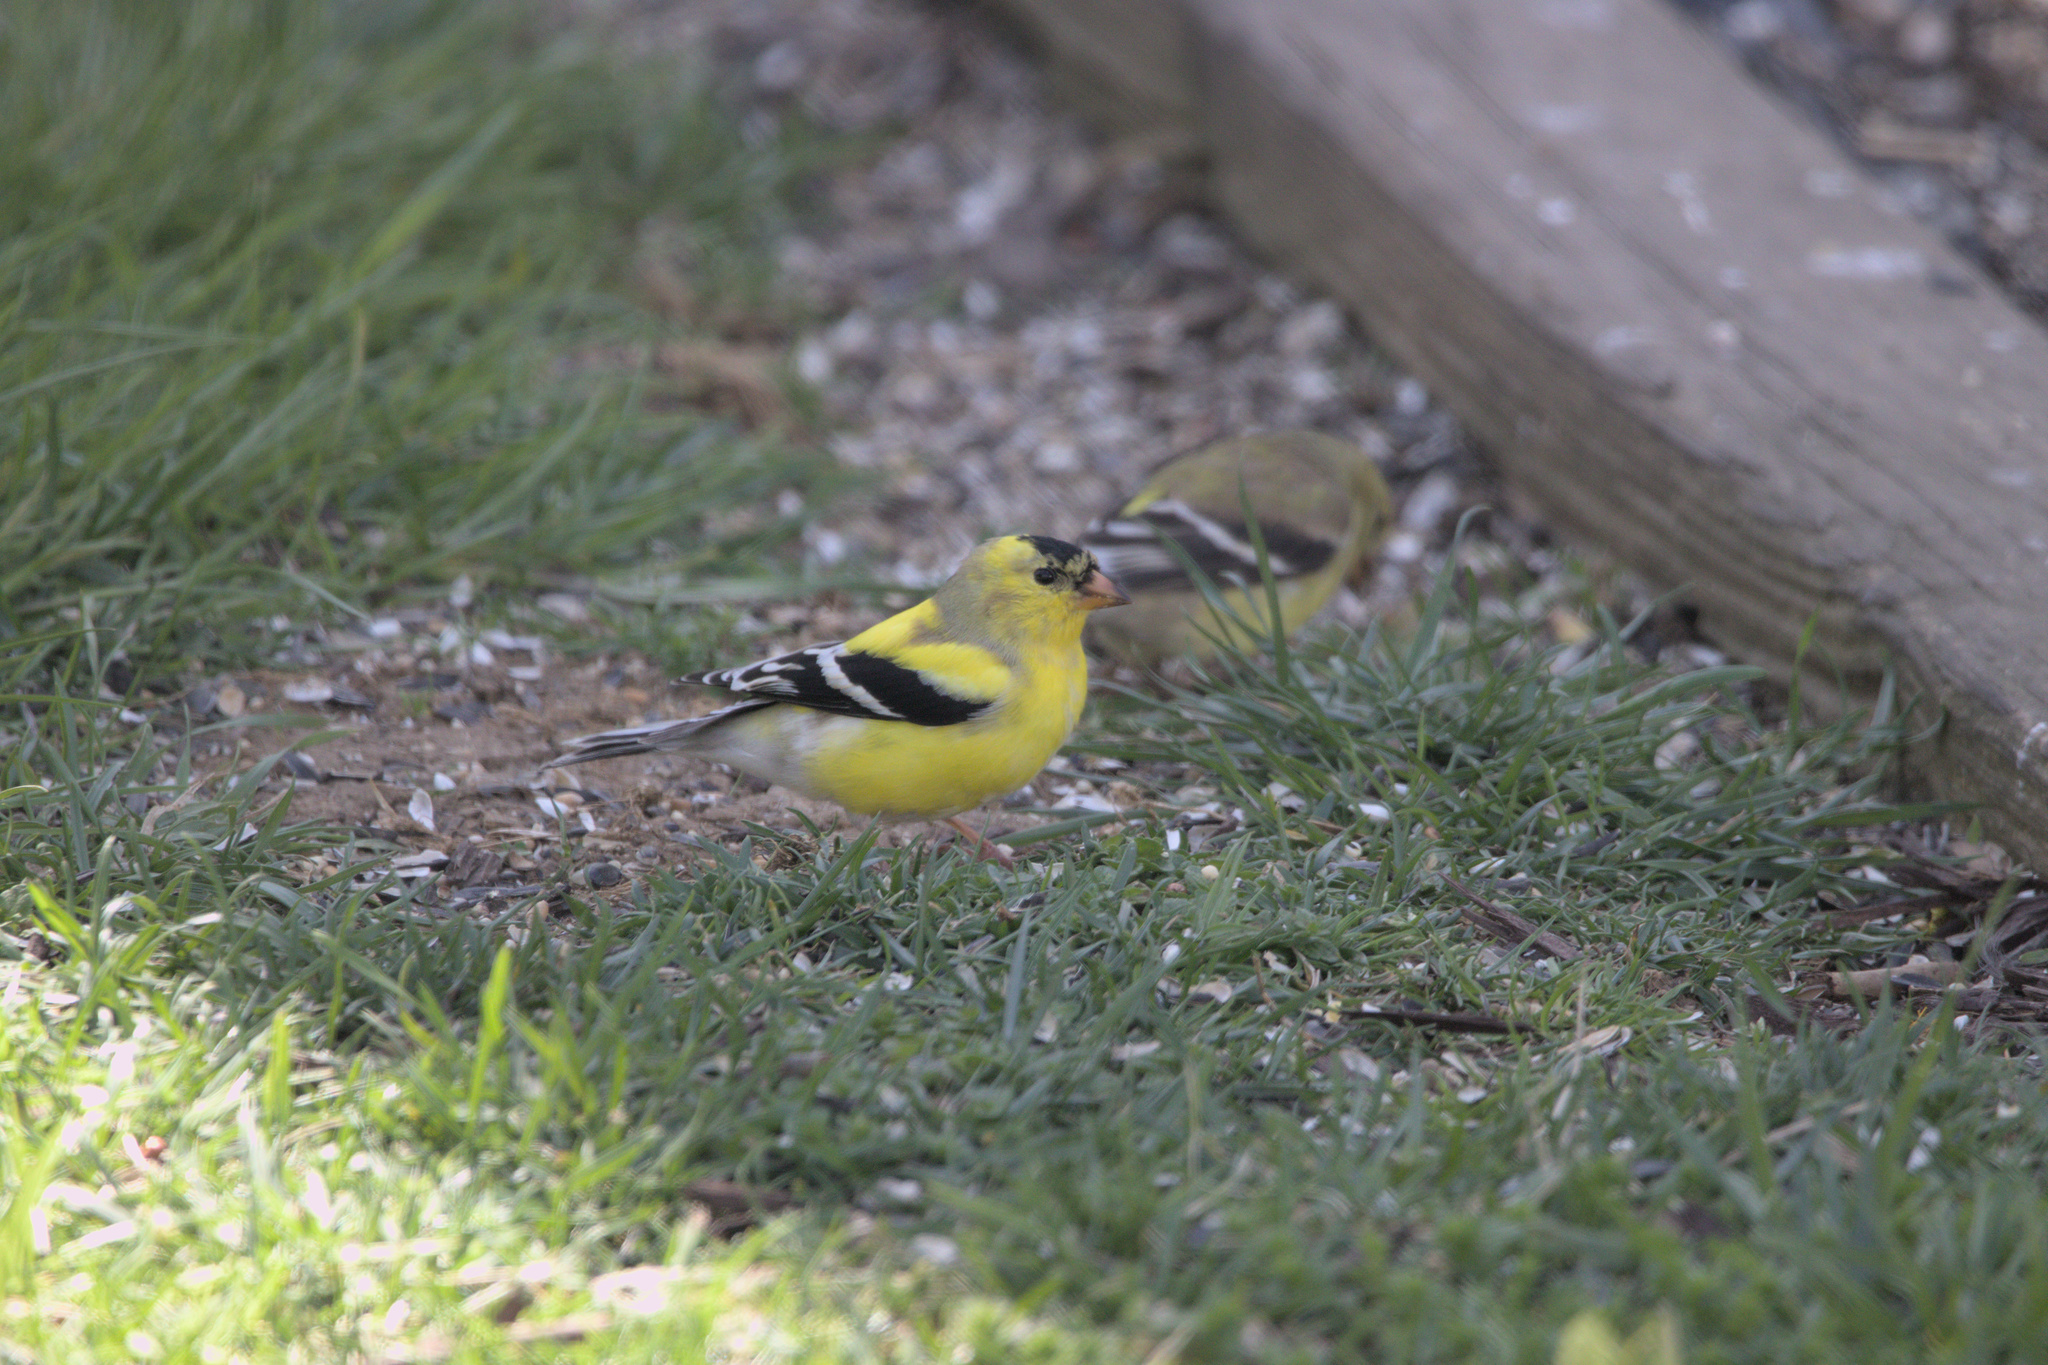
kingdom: Animalia
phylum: Chordata
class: Aves
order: Passeriformes
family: Fringillidae
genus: Spinus
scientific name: Spinus tristis
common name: American goldfinch
